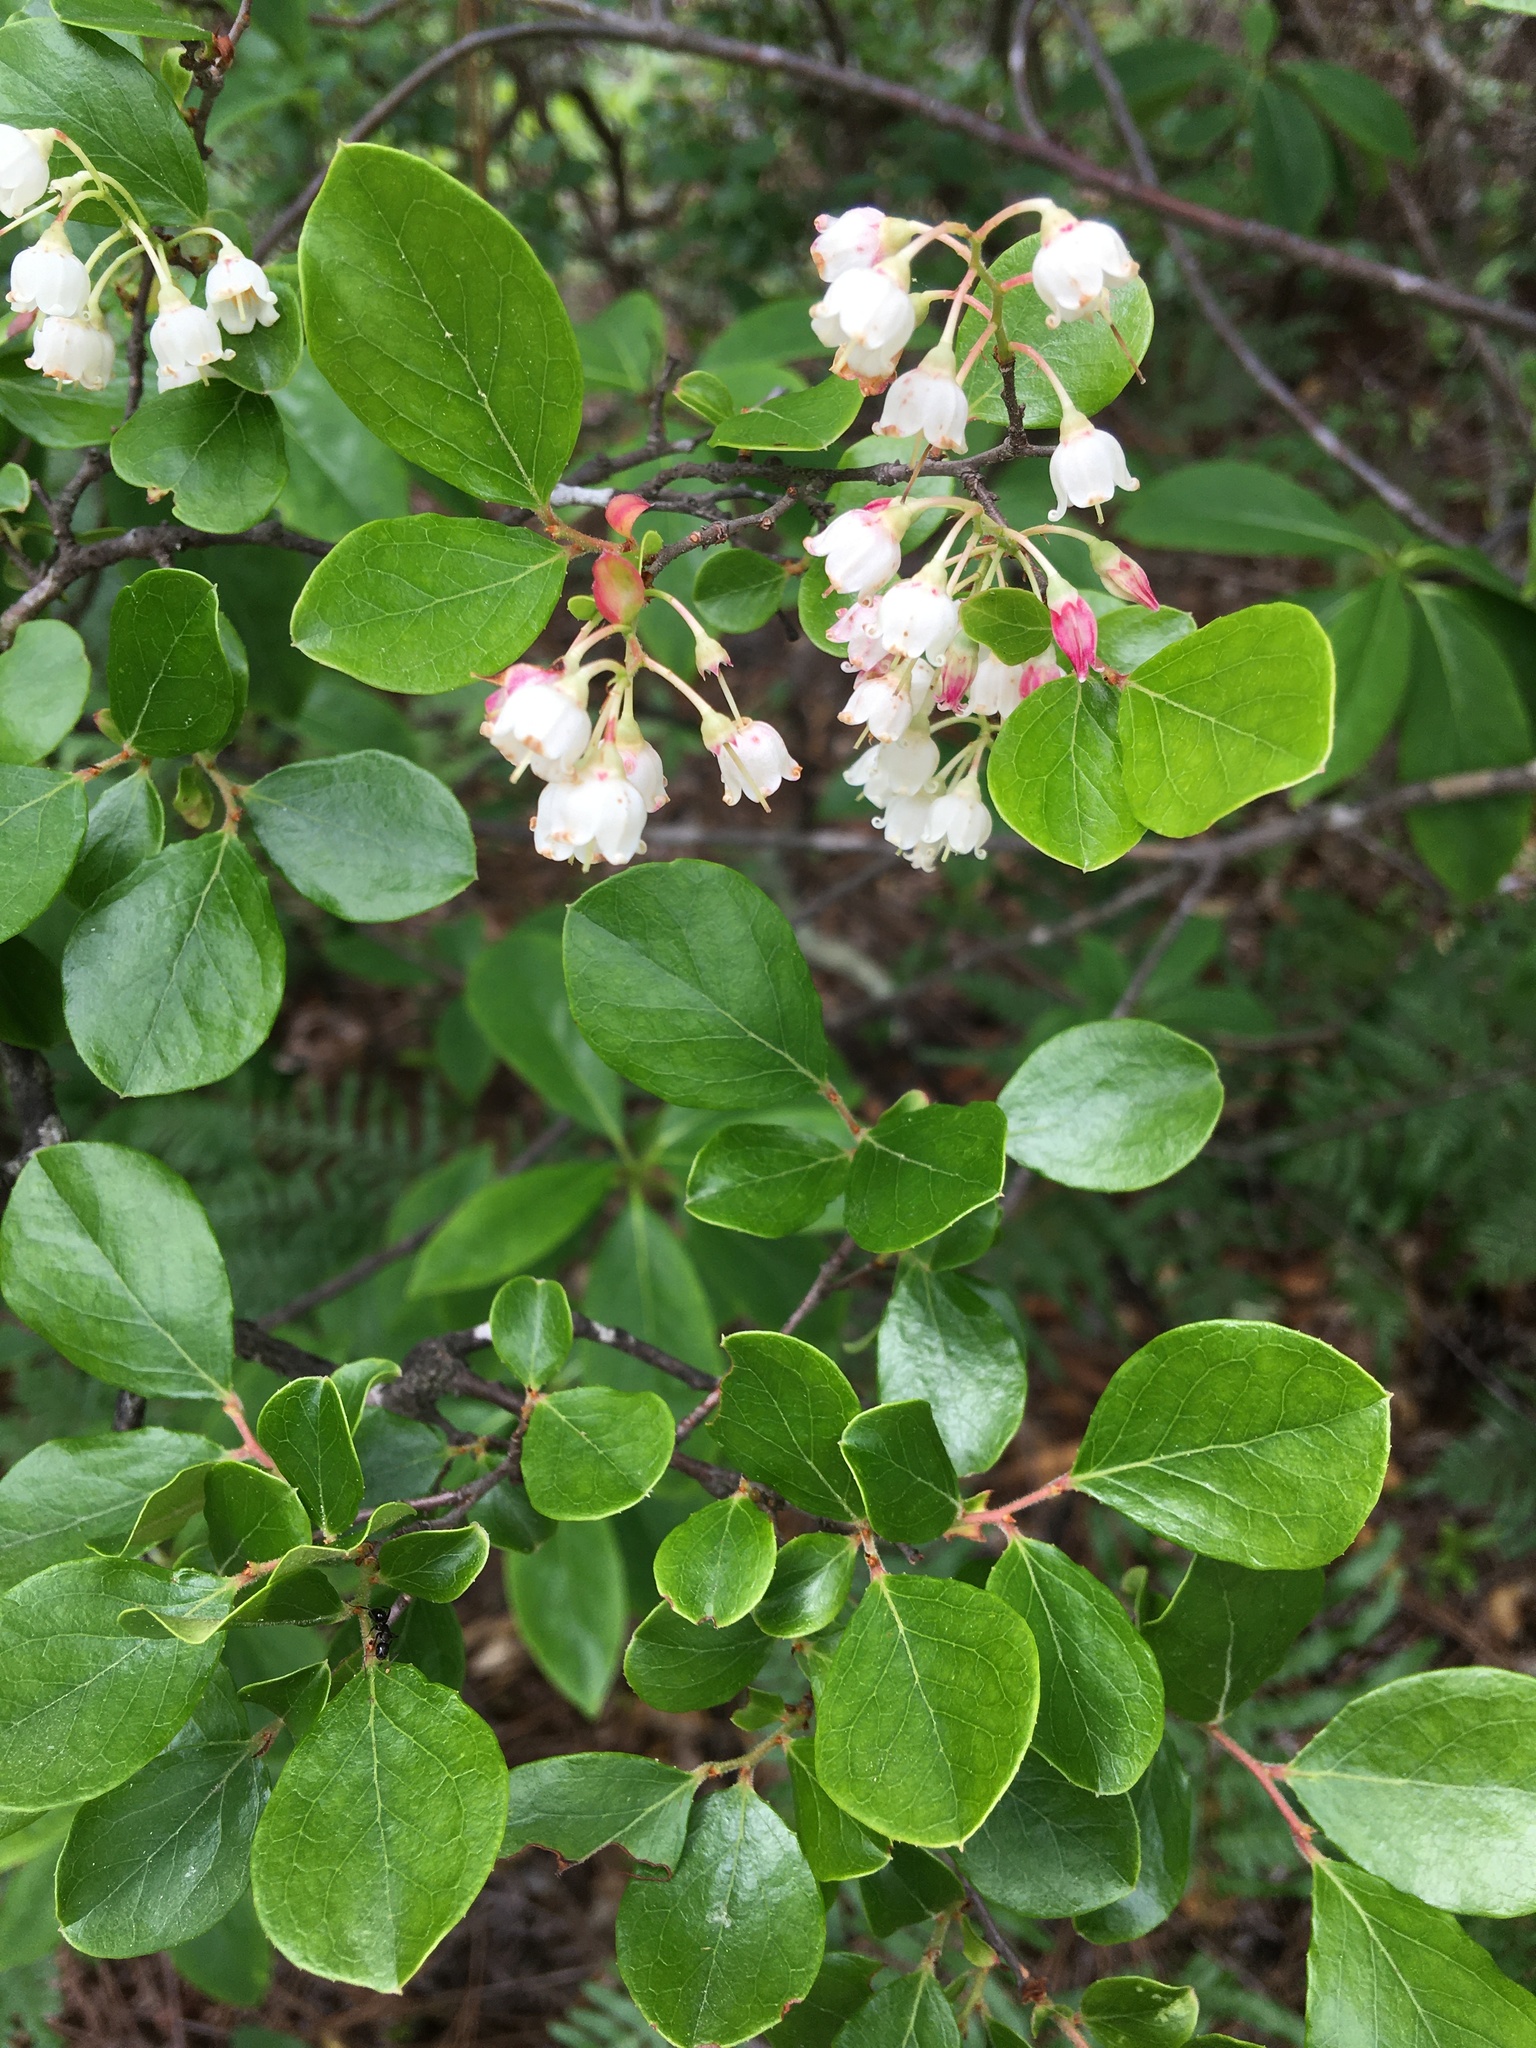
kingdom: Plantae
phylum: Tracheophyta
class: Magnoliopsida
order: Ericales
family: Ericaceae
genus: Vaccinium
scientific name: Vaccinium arboreum
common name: Farkleberry
